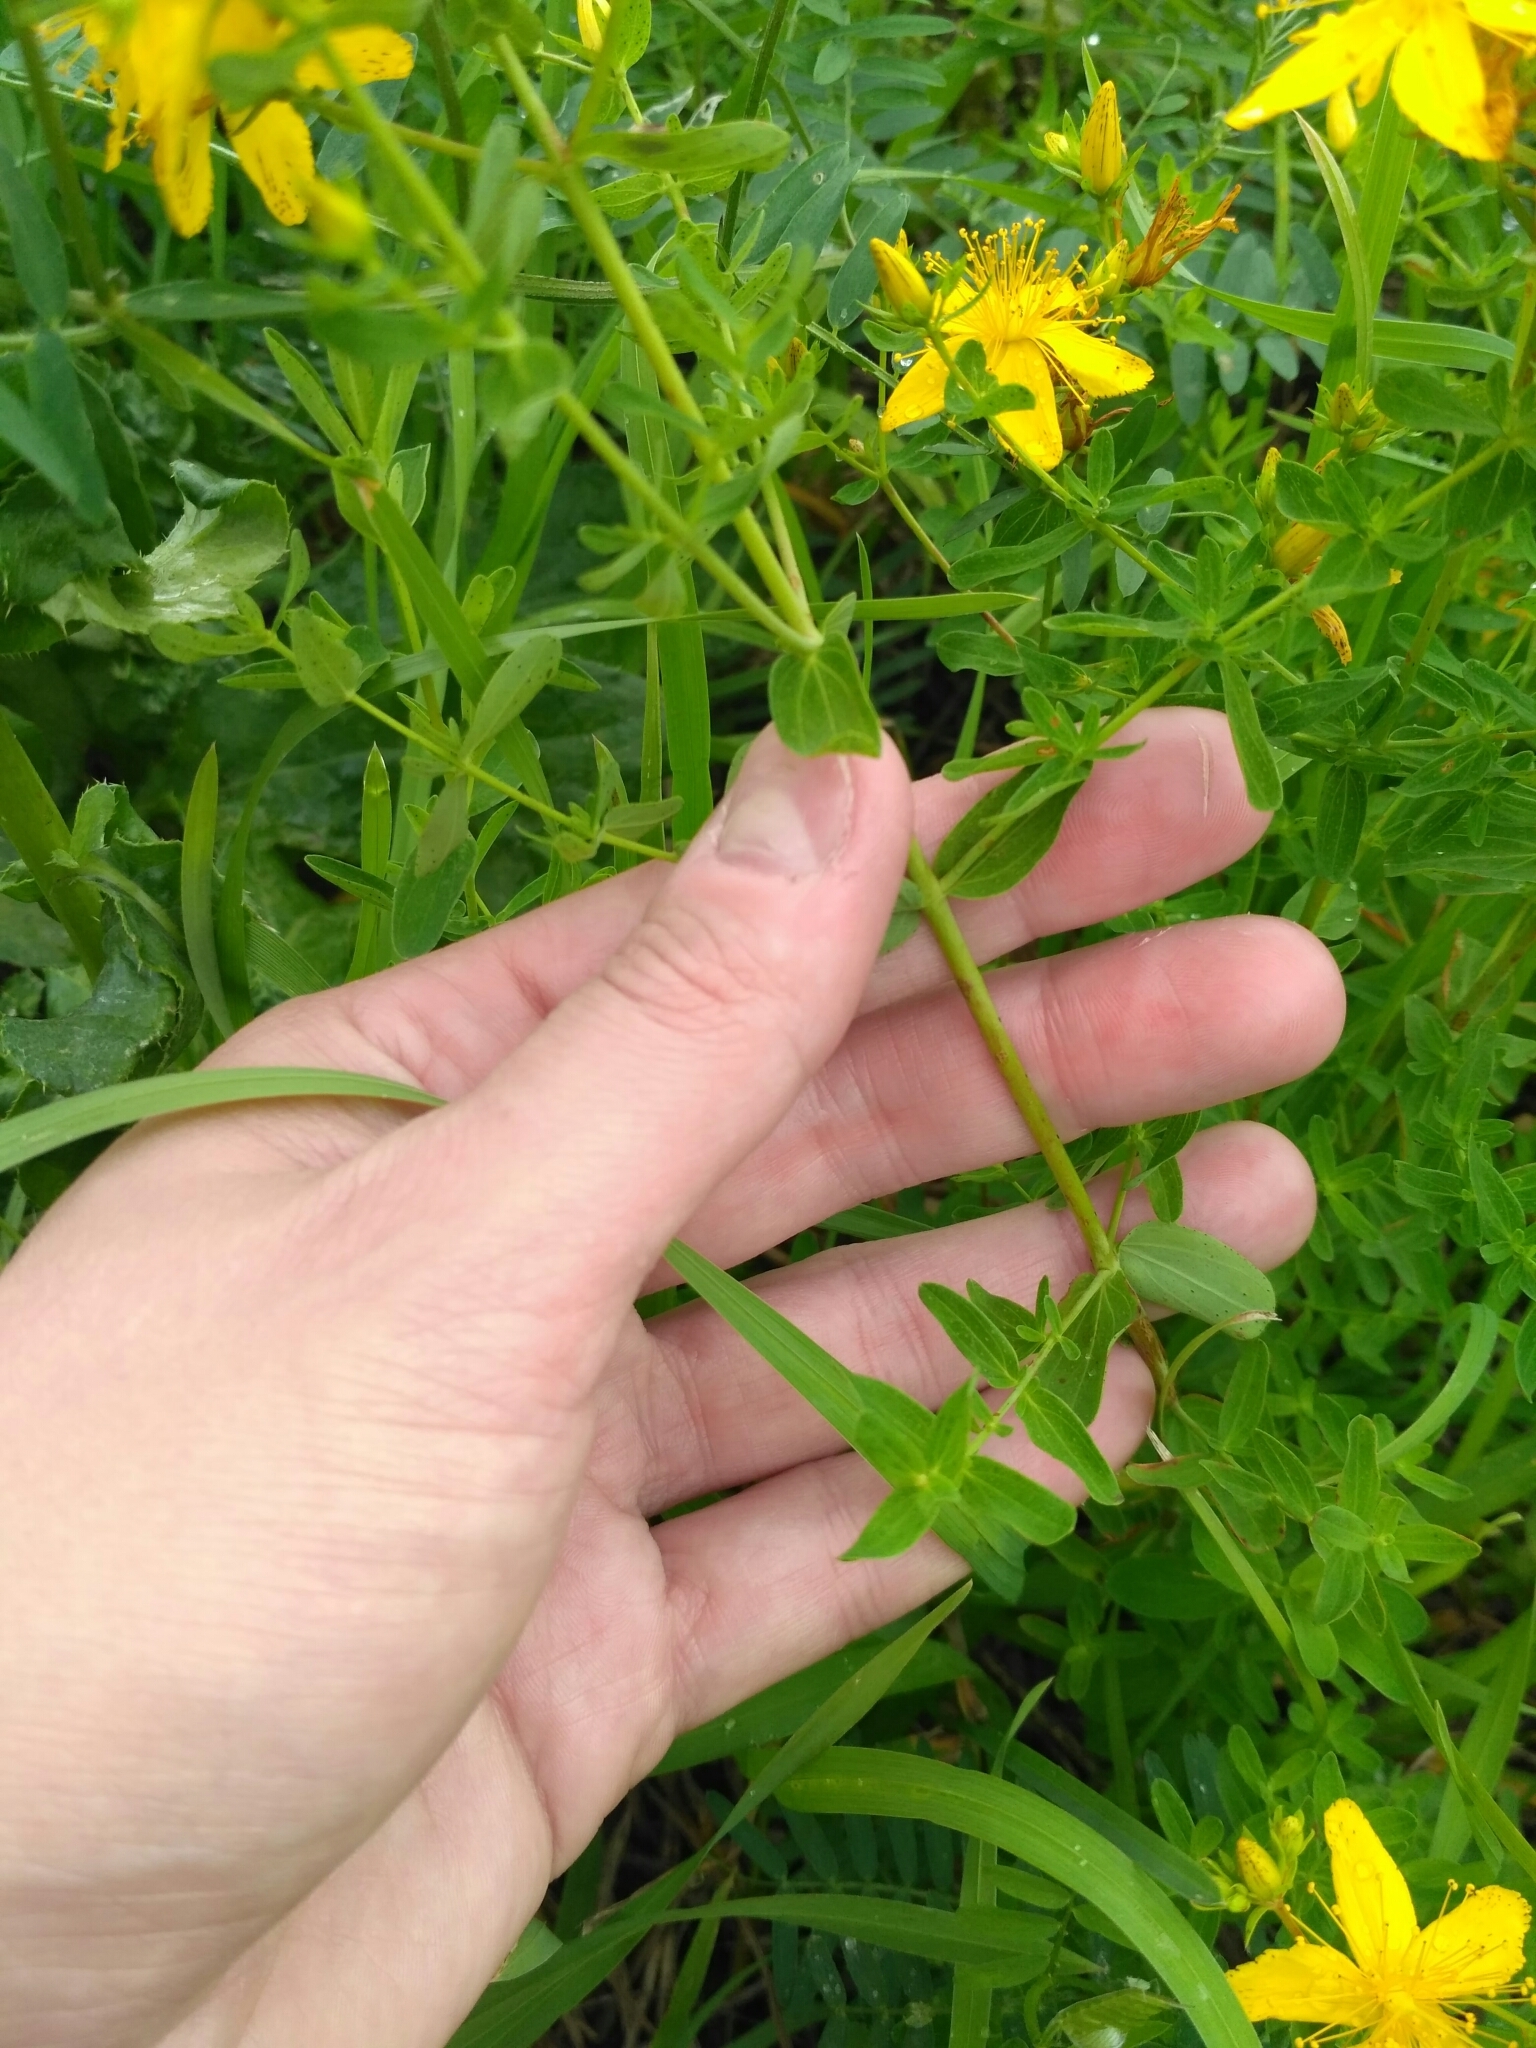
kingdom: Plantae
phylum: Tracheophyta
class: Magnoliopsida
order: Malpighiales
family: Hypericaceae
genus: Hypericum
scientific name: Hypericum perforatum
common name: Common st. johnswort
